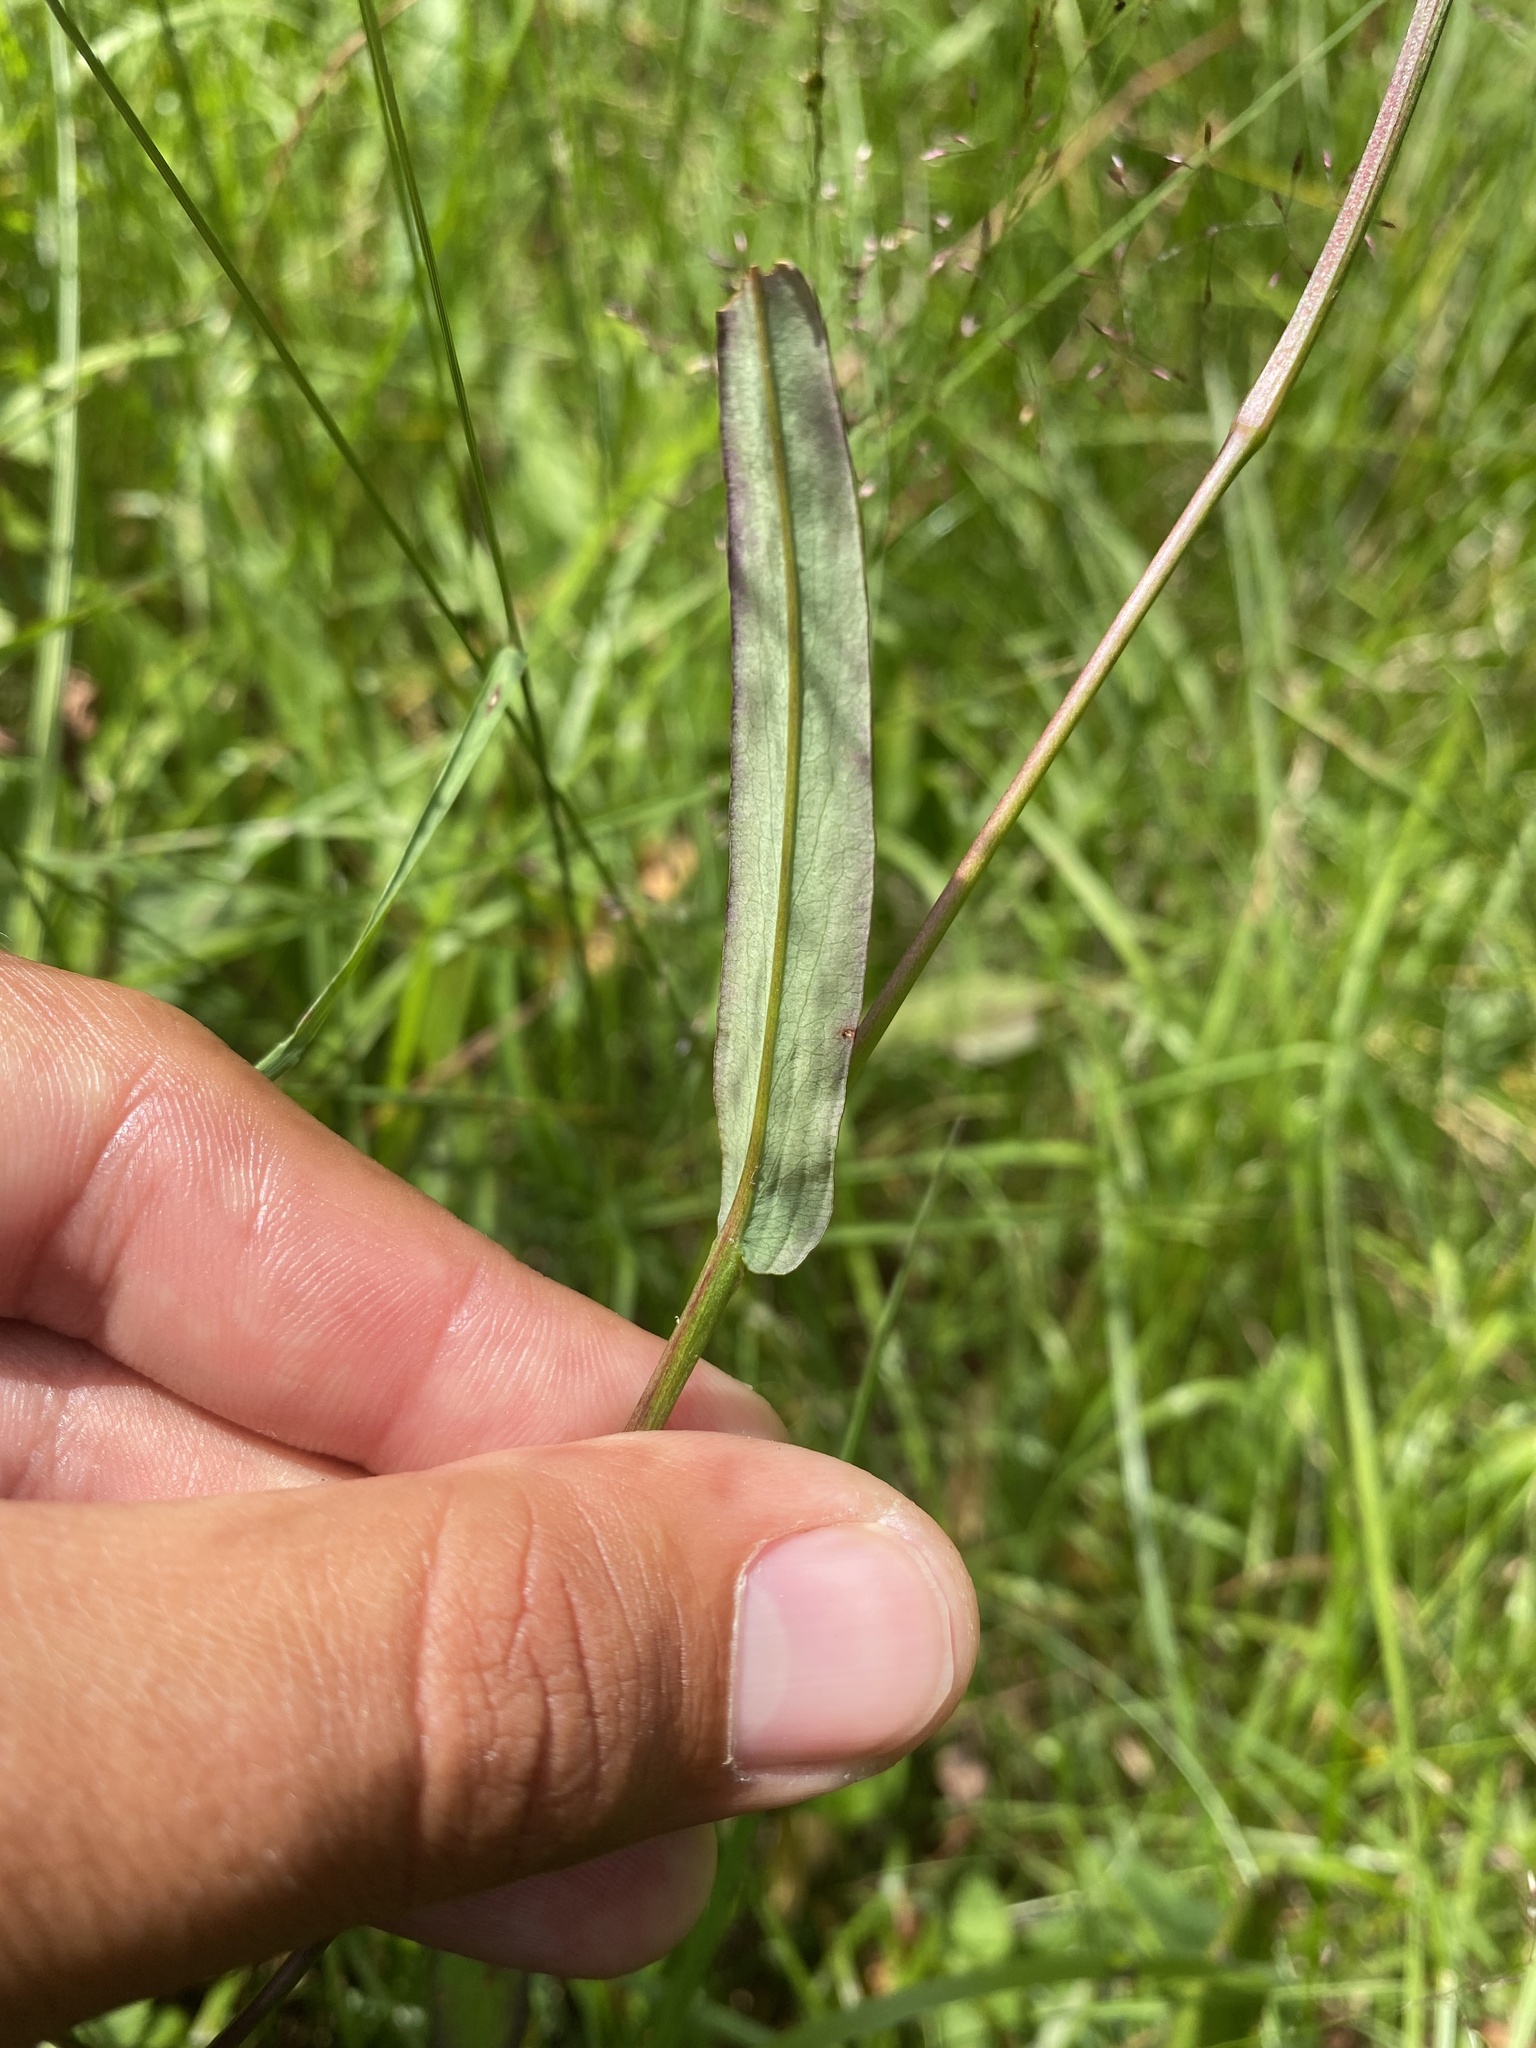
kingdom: Plantae
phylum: Tracheophyta
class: Magnoliopsida
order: Caryophyllales
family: Polygonaceae
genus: Bistorta
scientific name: Bistorta vivipara
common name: Alpine bistort
